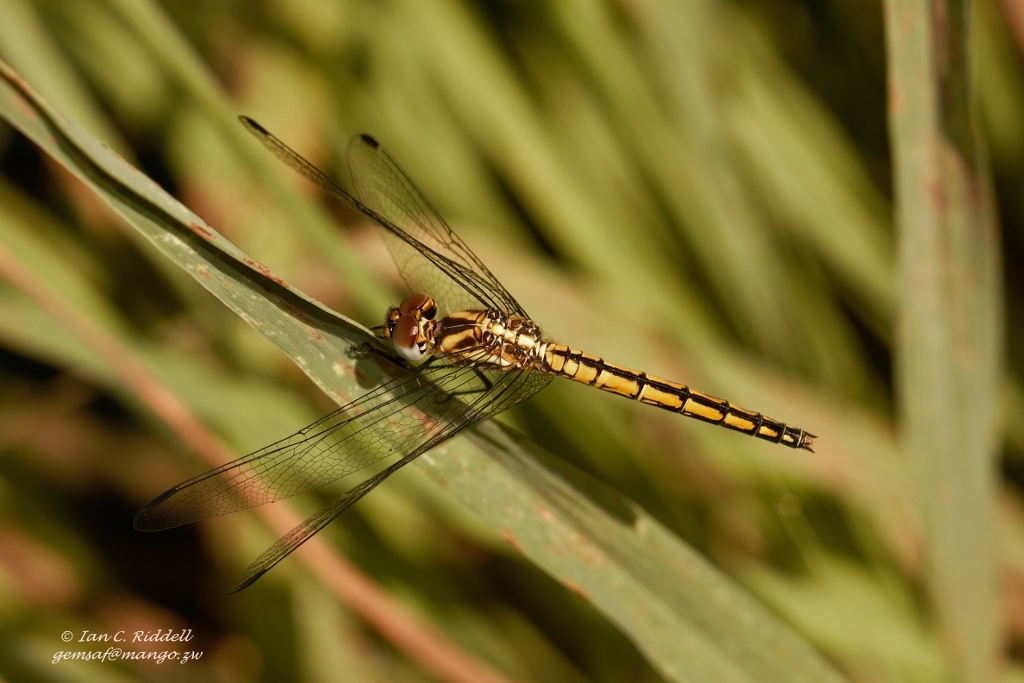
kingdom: Animalia
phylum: Arthropoda
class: Insecta
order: Odonata
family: Libellulidae
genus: Trithemis
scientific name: Trithemis furva
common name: Dark dropwing
